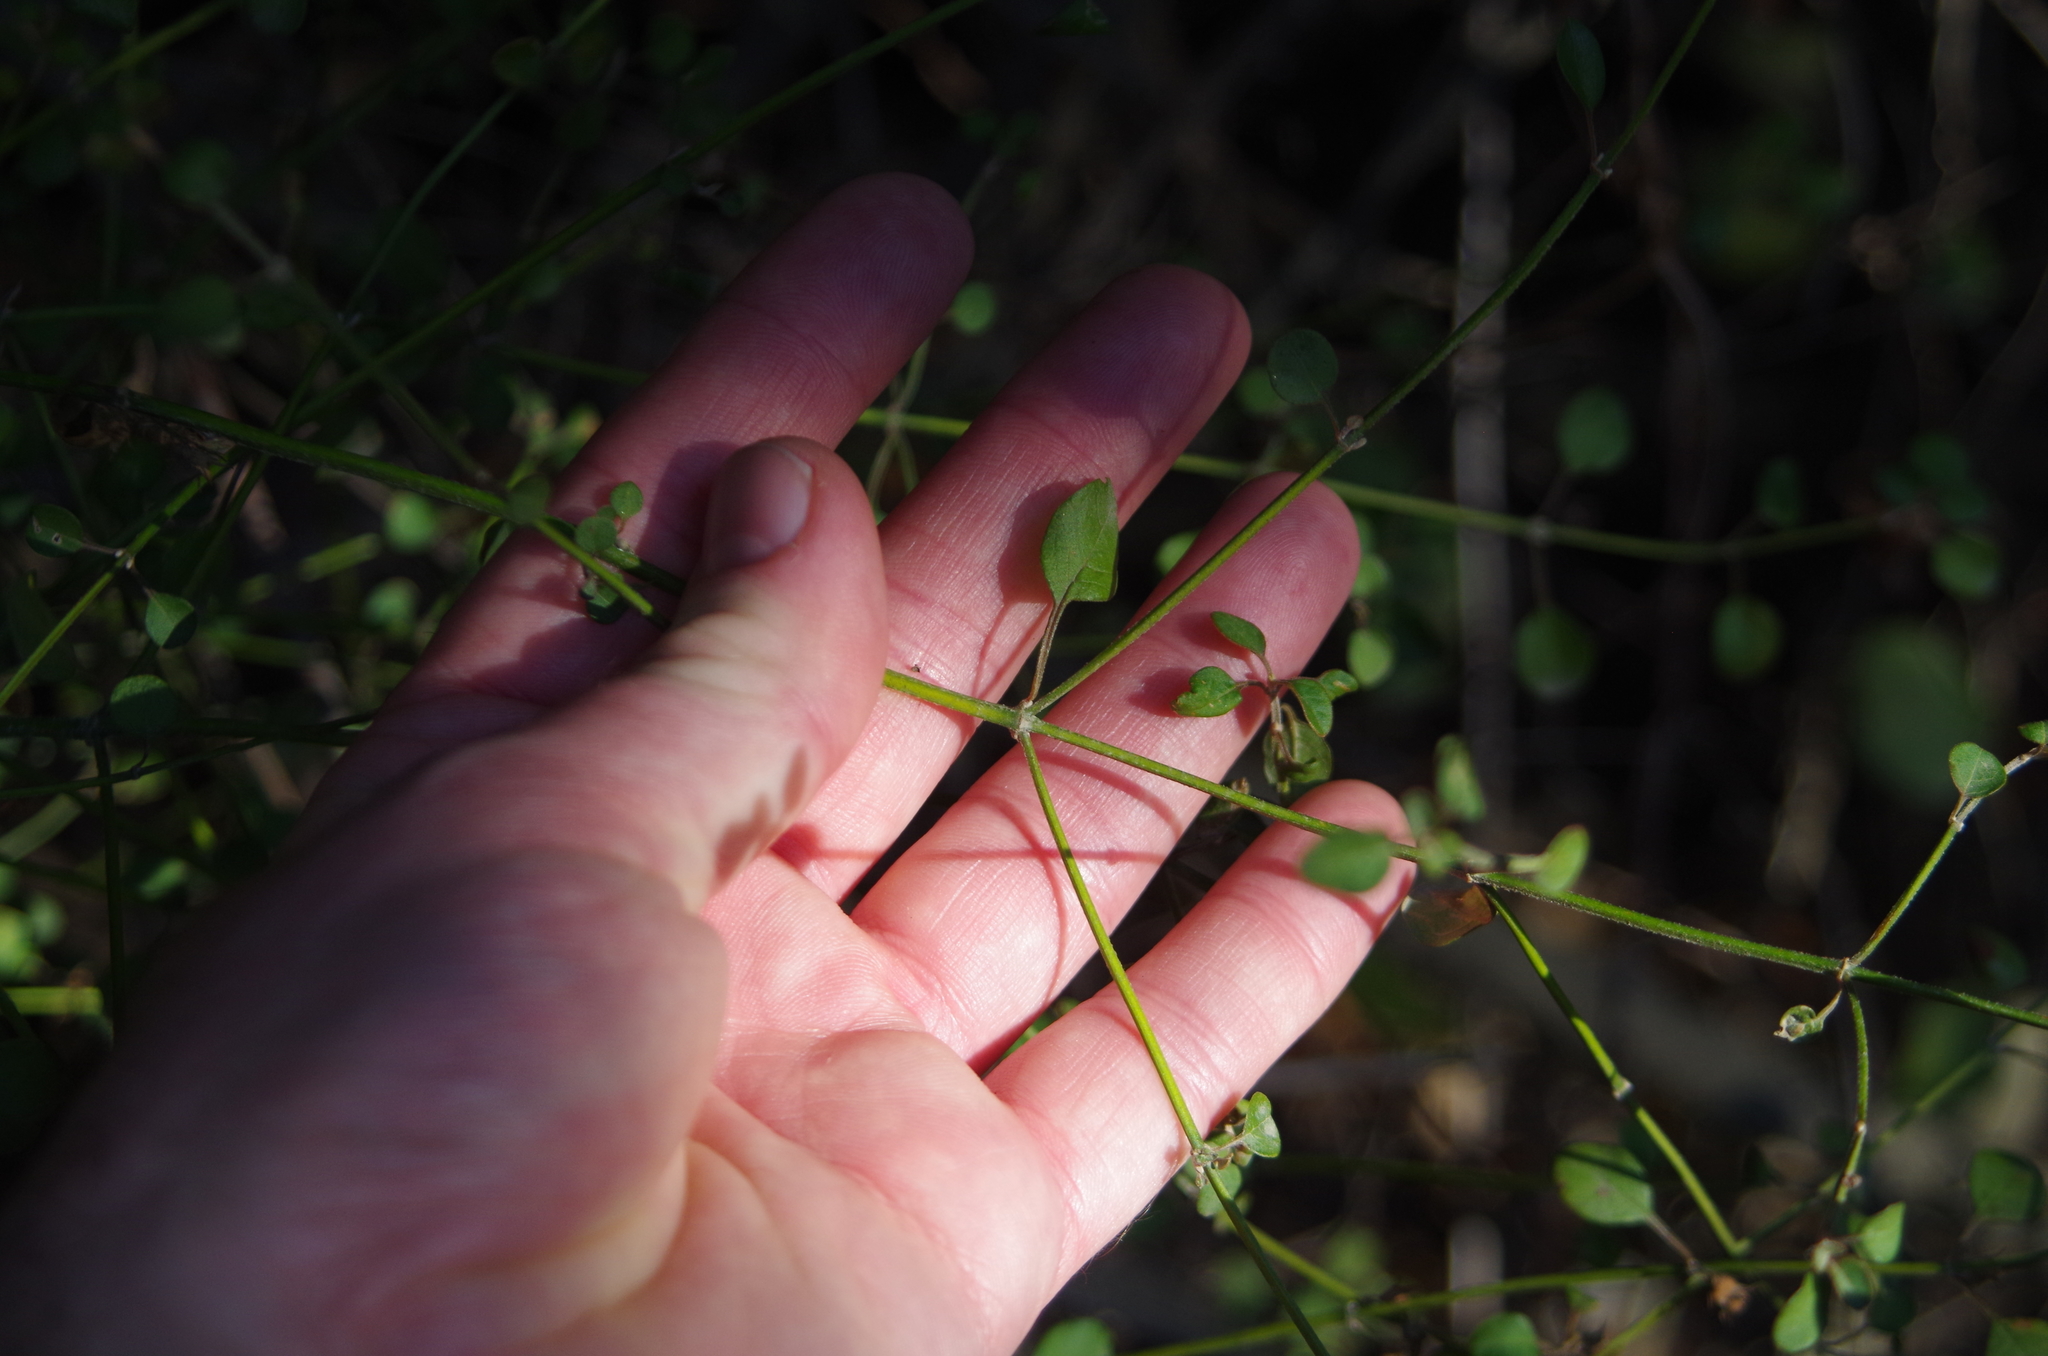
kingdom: Plantae
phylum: Tracheophyta
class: Magnoliopsida
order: Lamiales
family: Lamiaceae
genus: Teucrium
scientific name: Teucrium parvifolium
